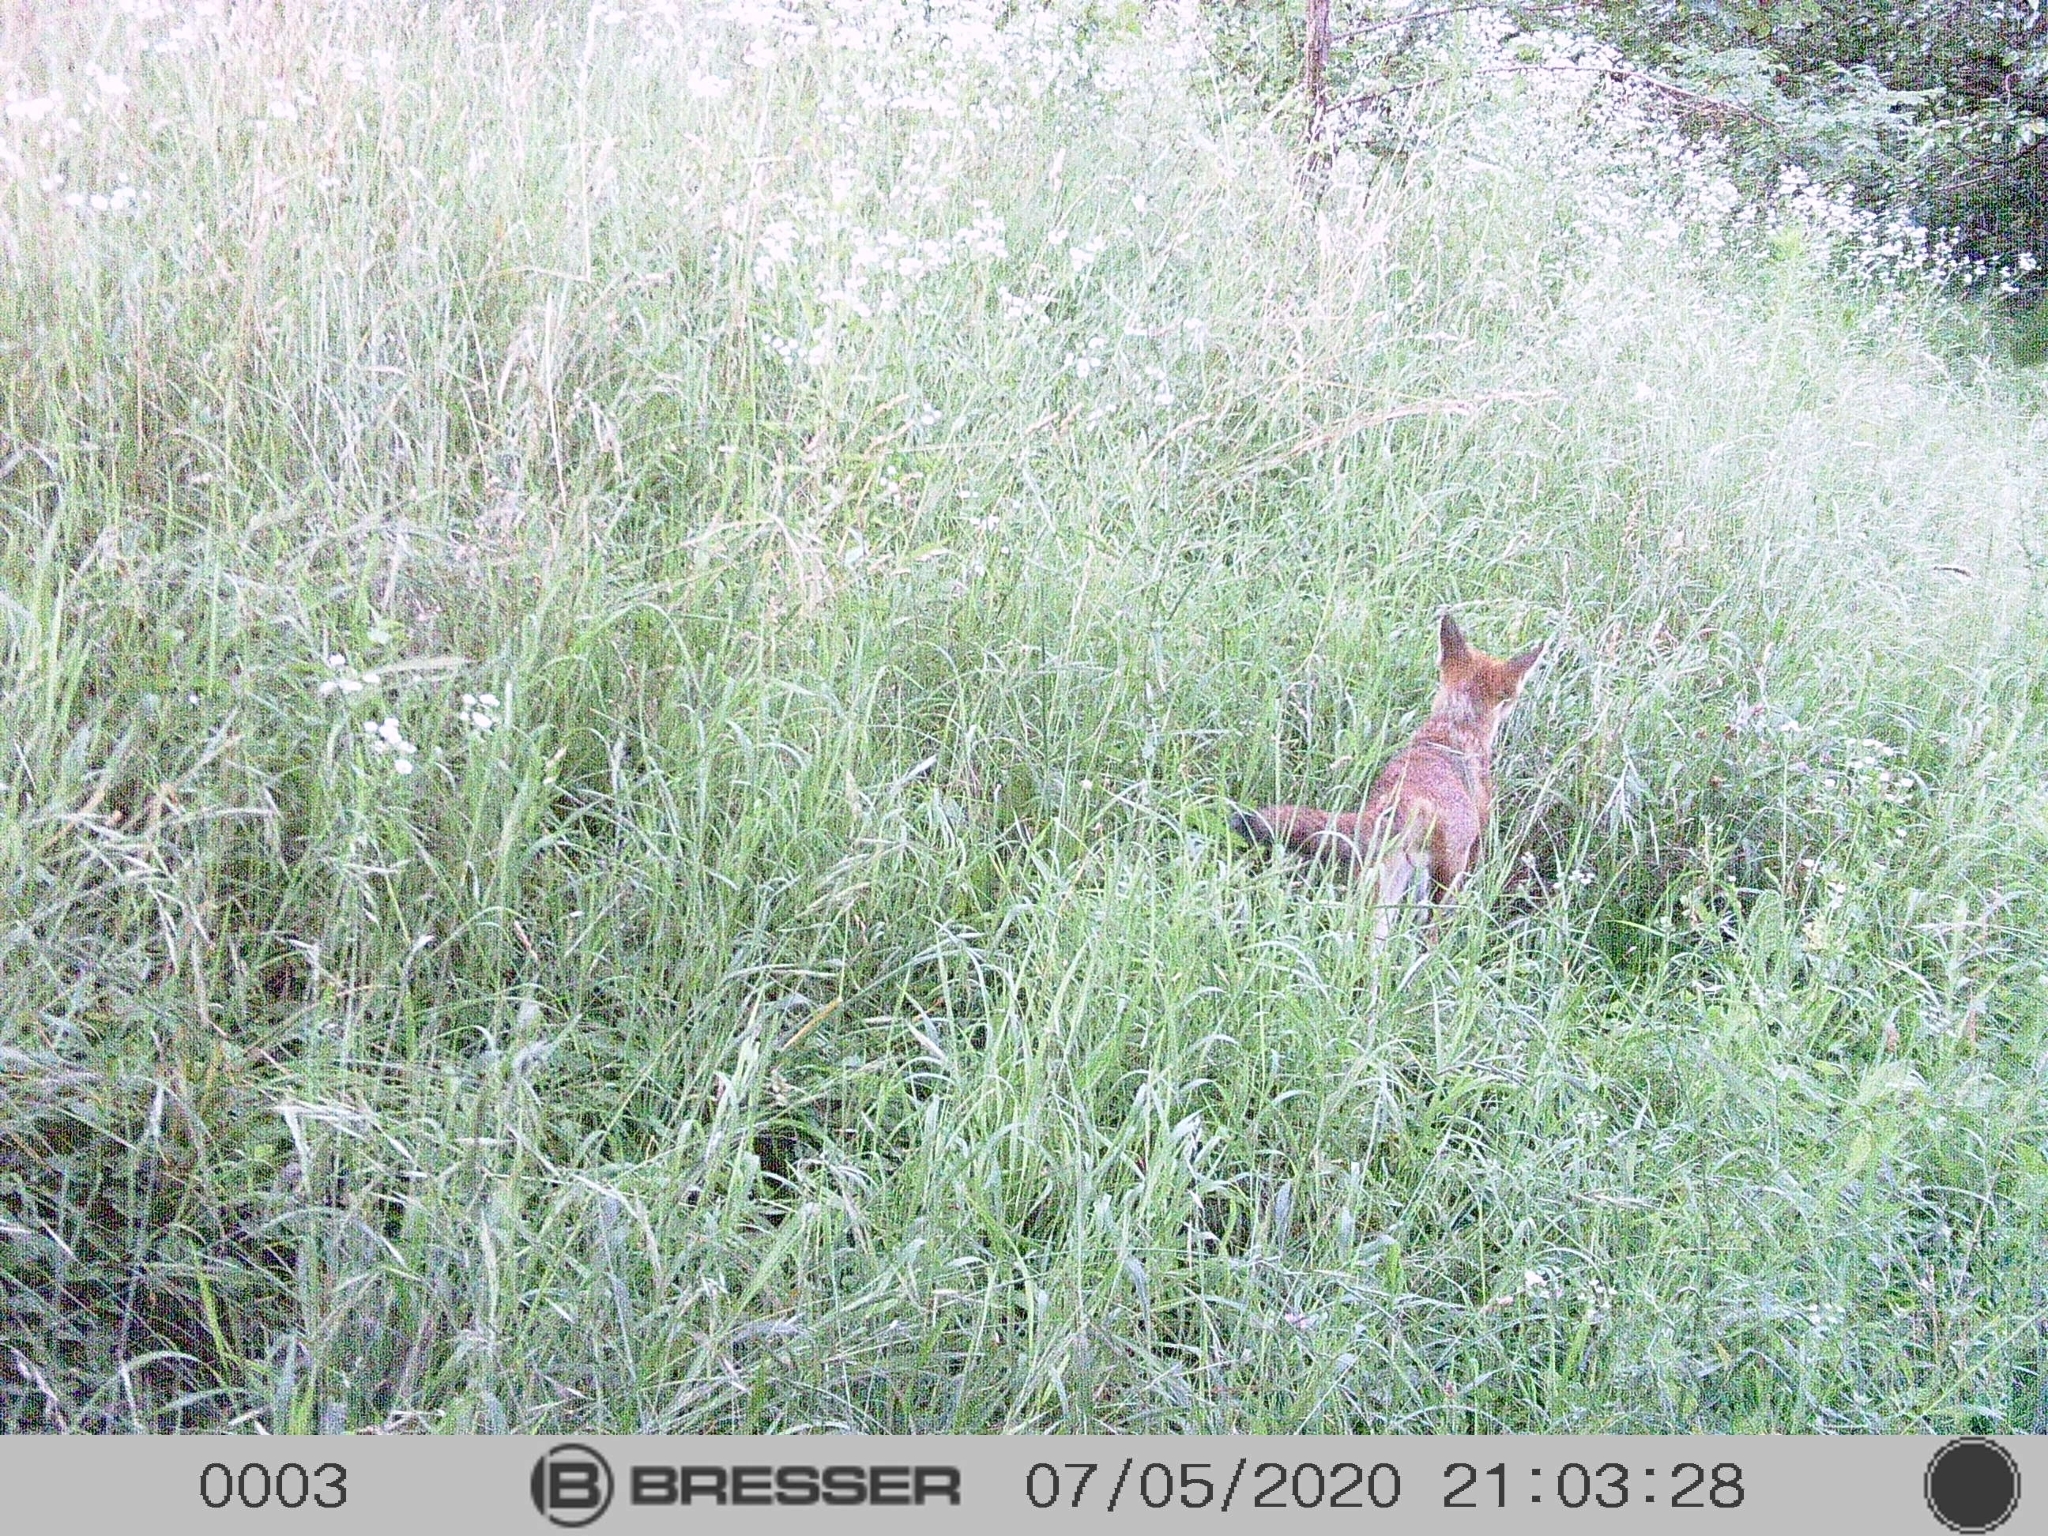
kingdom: Animalia
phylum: Chordata
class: Mammalia
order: Carnivora
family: Canidae
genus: Vulpes
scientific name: Vulpes vulpes
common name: Red fox
